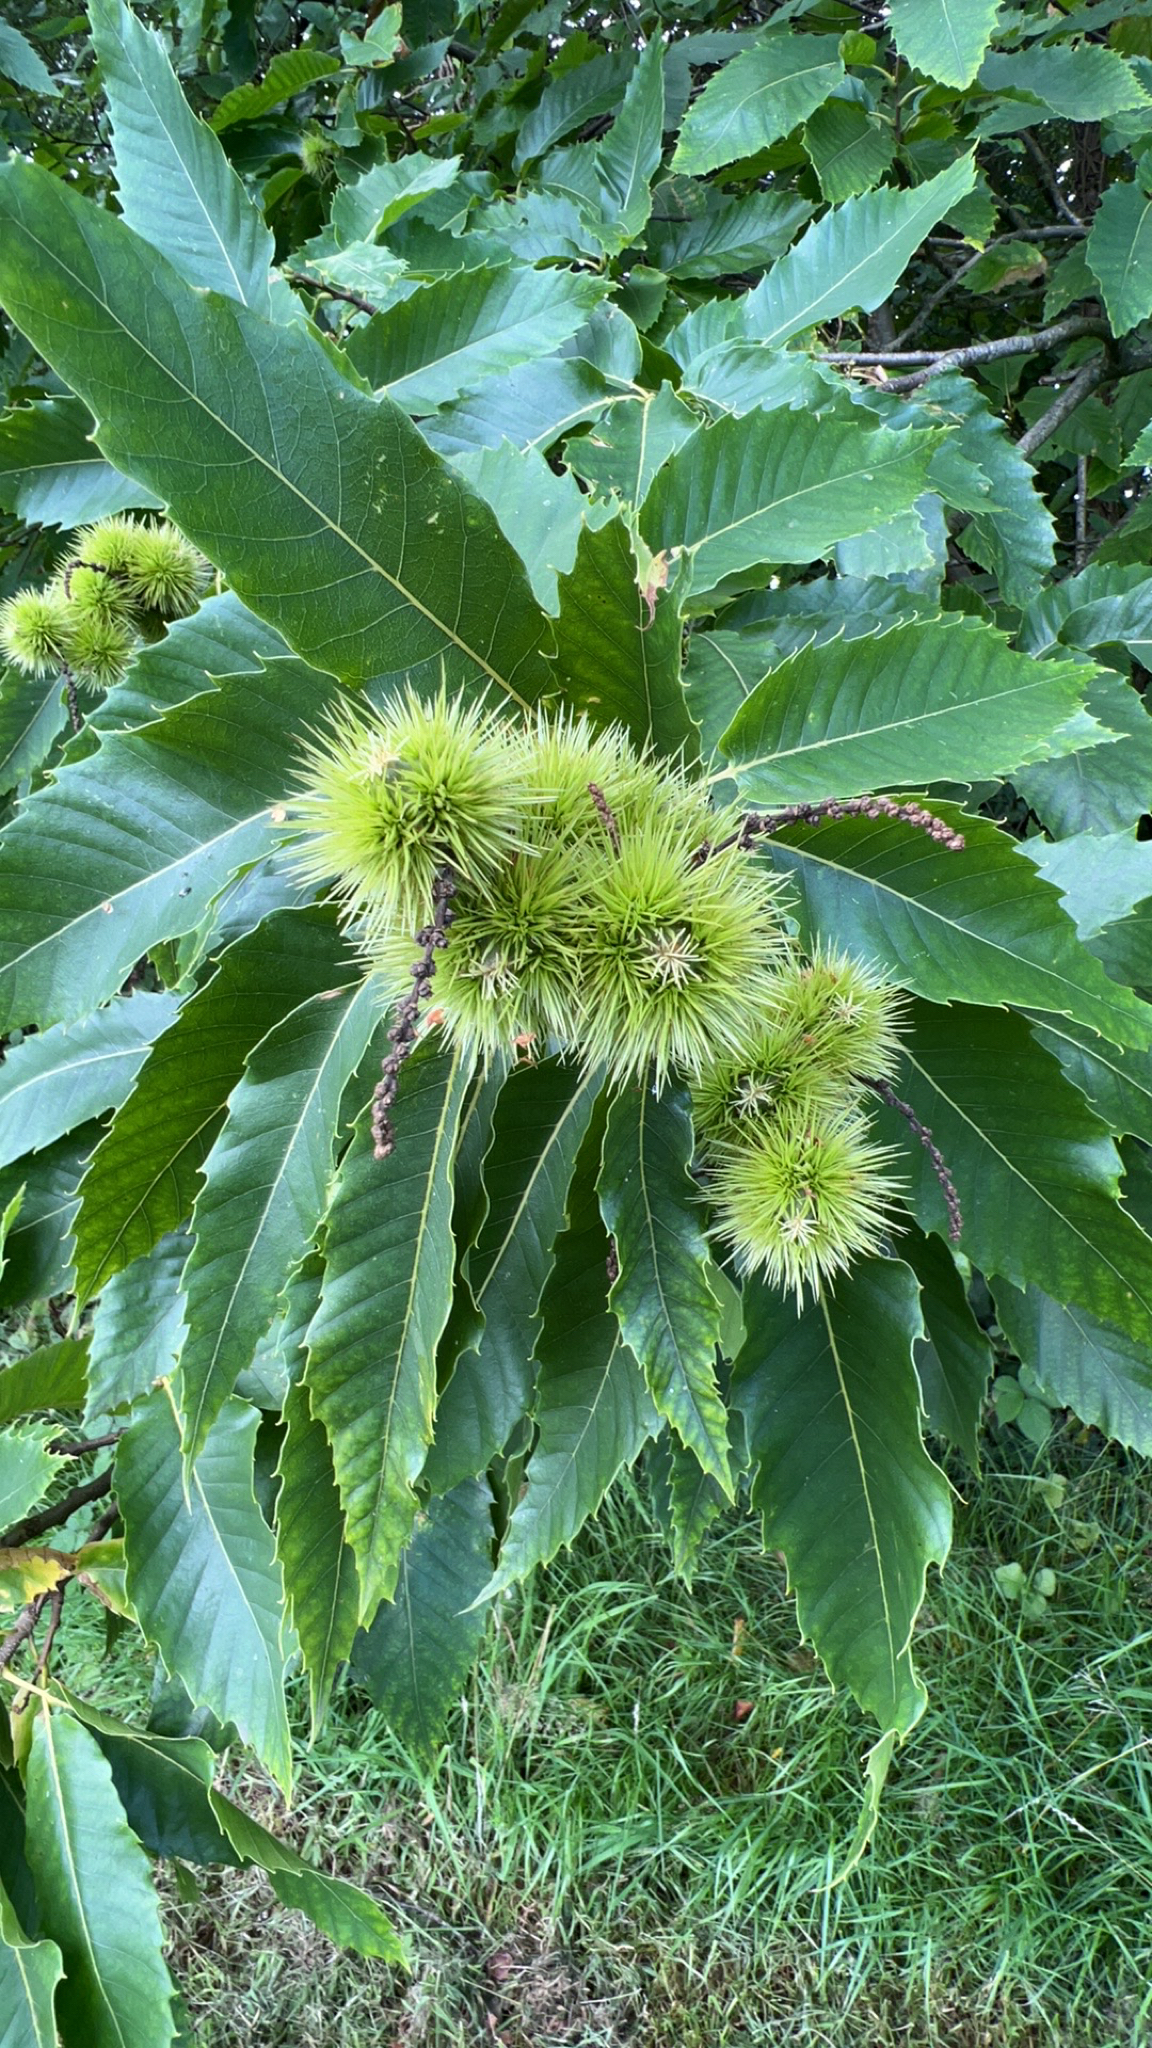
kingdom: Plantae
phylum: Tracheophyta
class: Magnoliopsida
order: Fagales
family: Fagaceae
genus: Castanea
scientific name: Castanea sativa
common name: Sweet chestnut
